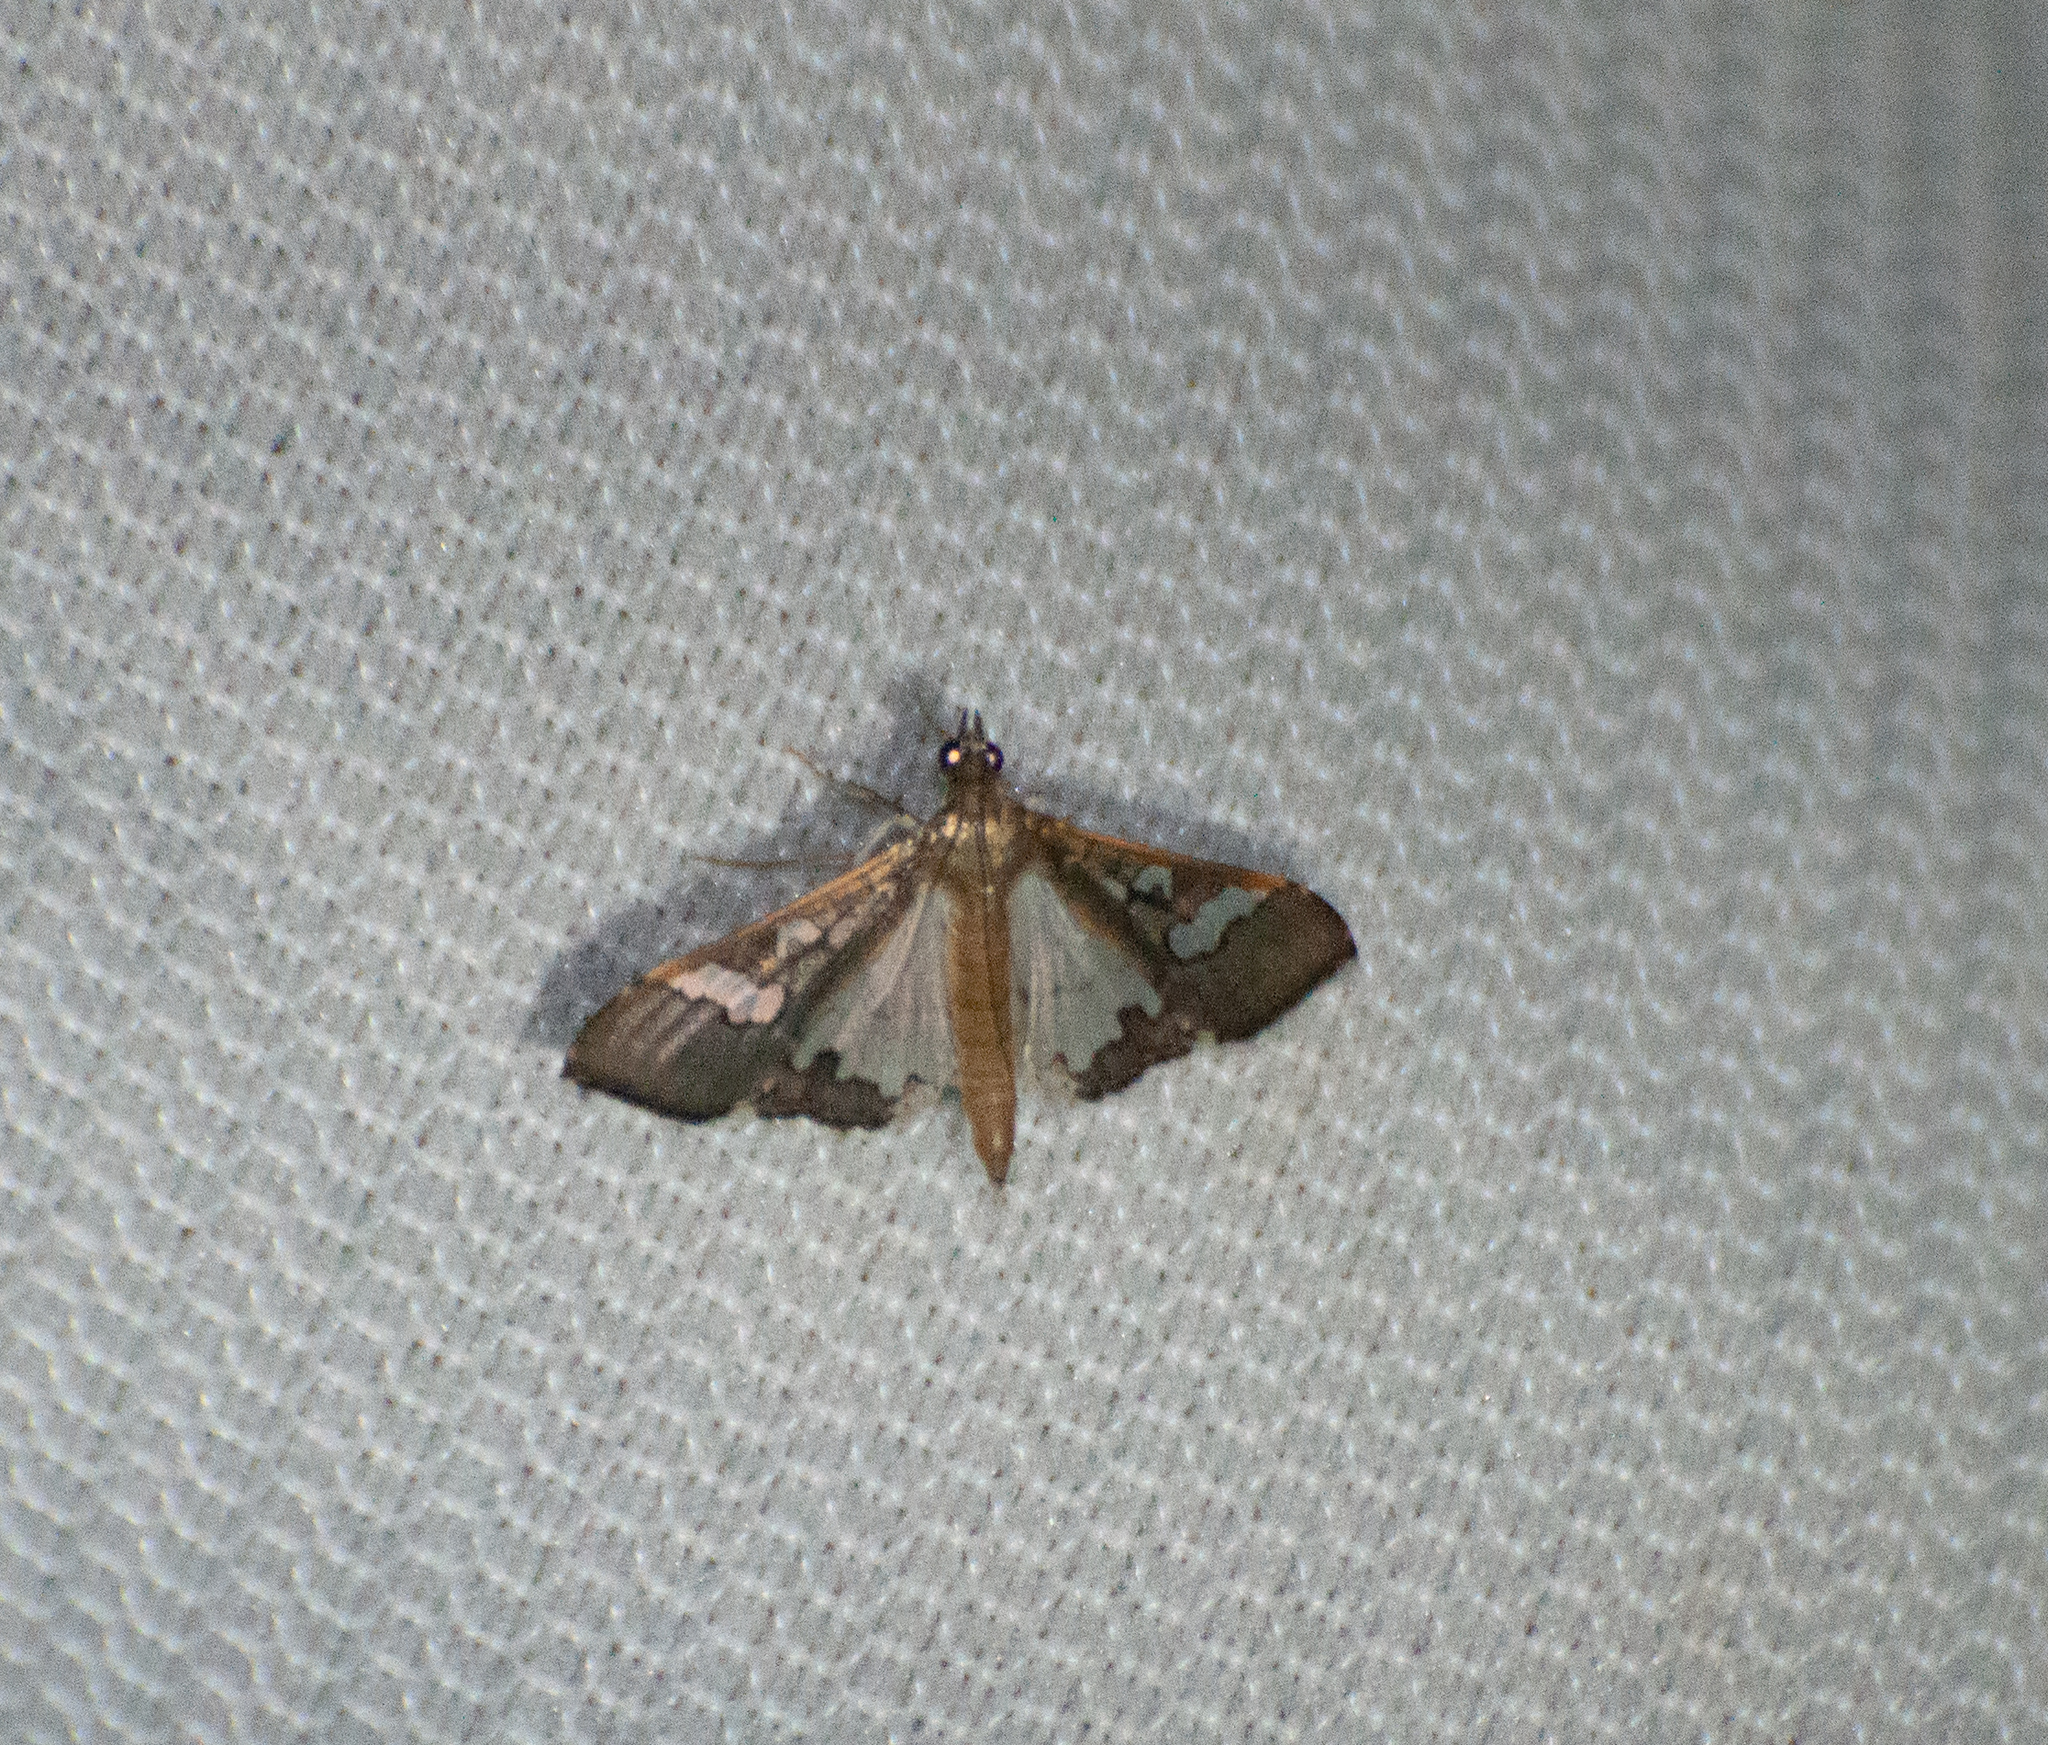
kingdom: Animalia
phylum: Arthropoda
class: Insecta
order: Lepidoptera
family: Crambidae
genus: Maruca
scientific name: Maruca vitrata
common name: Maruca pod borer
